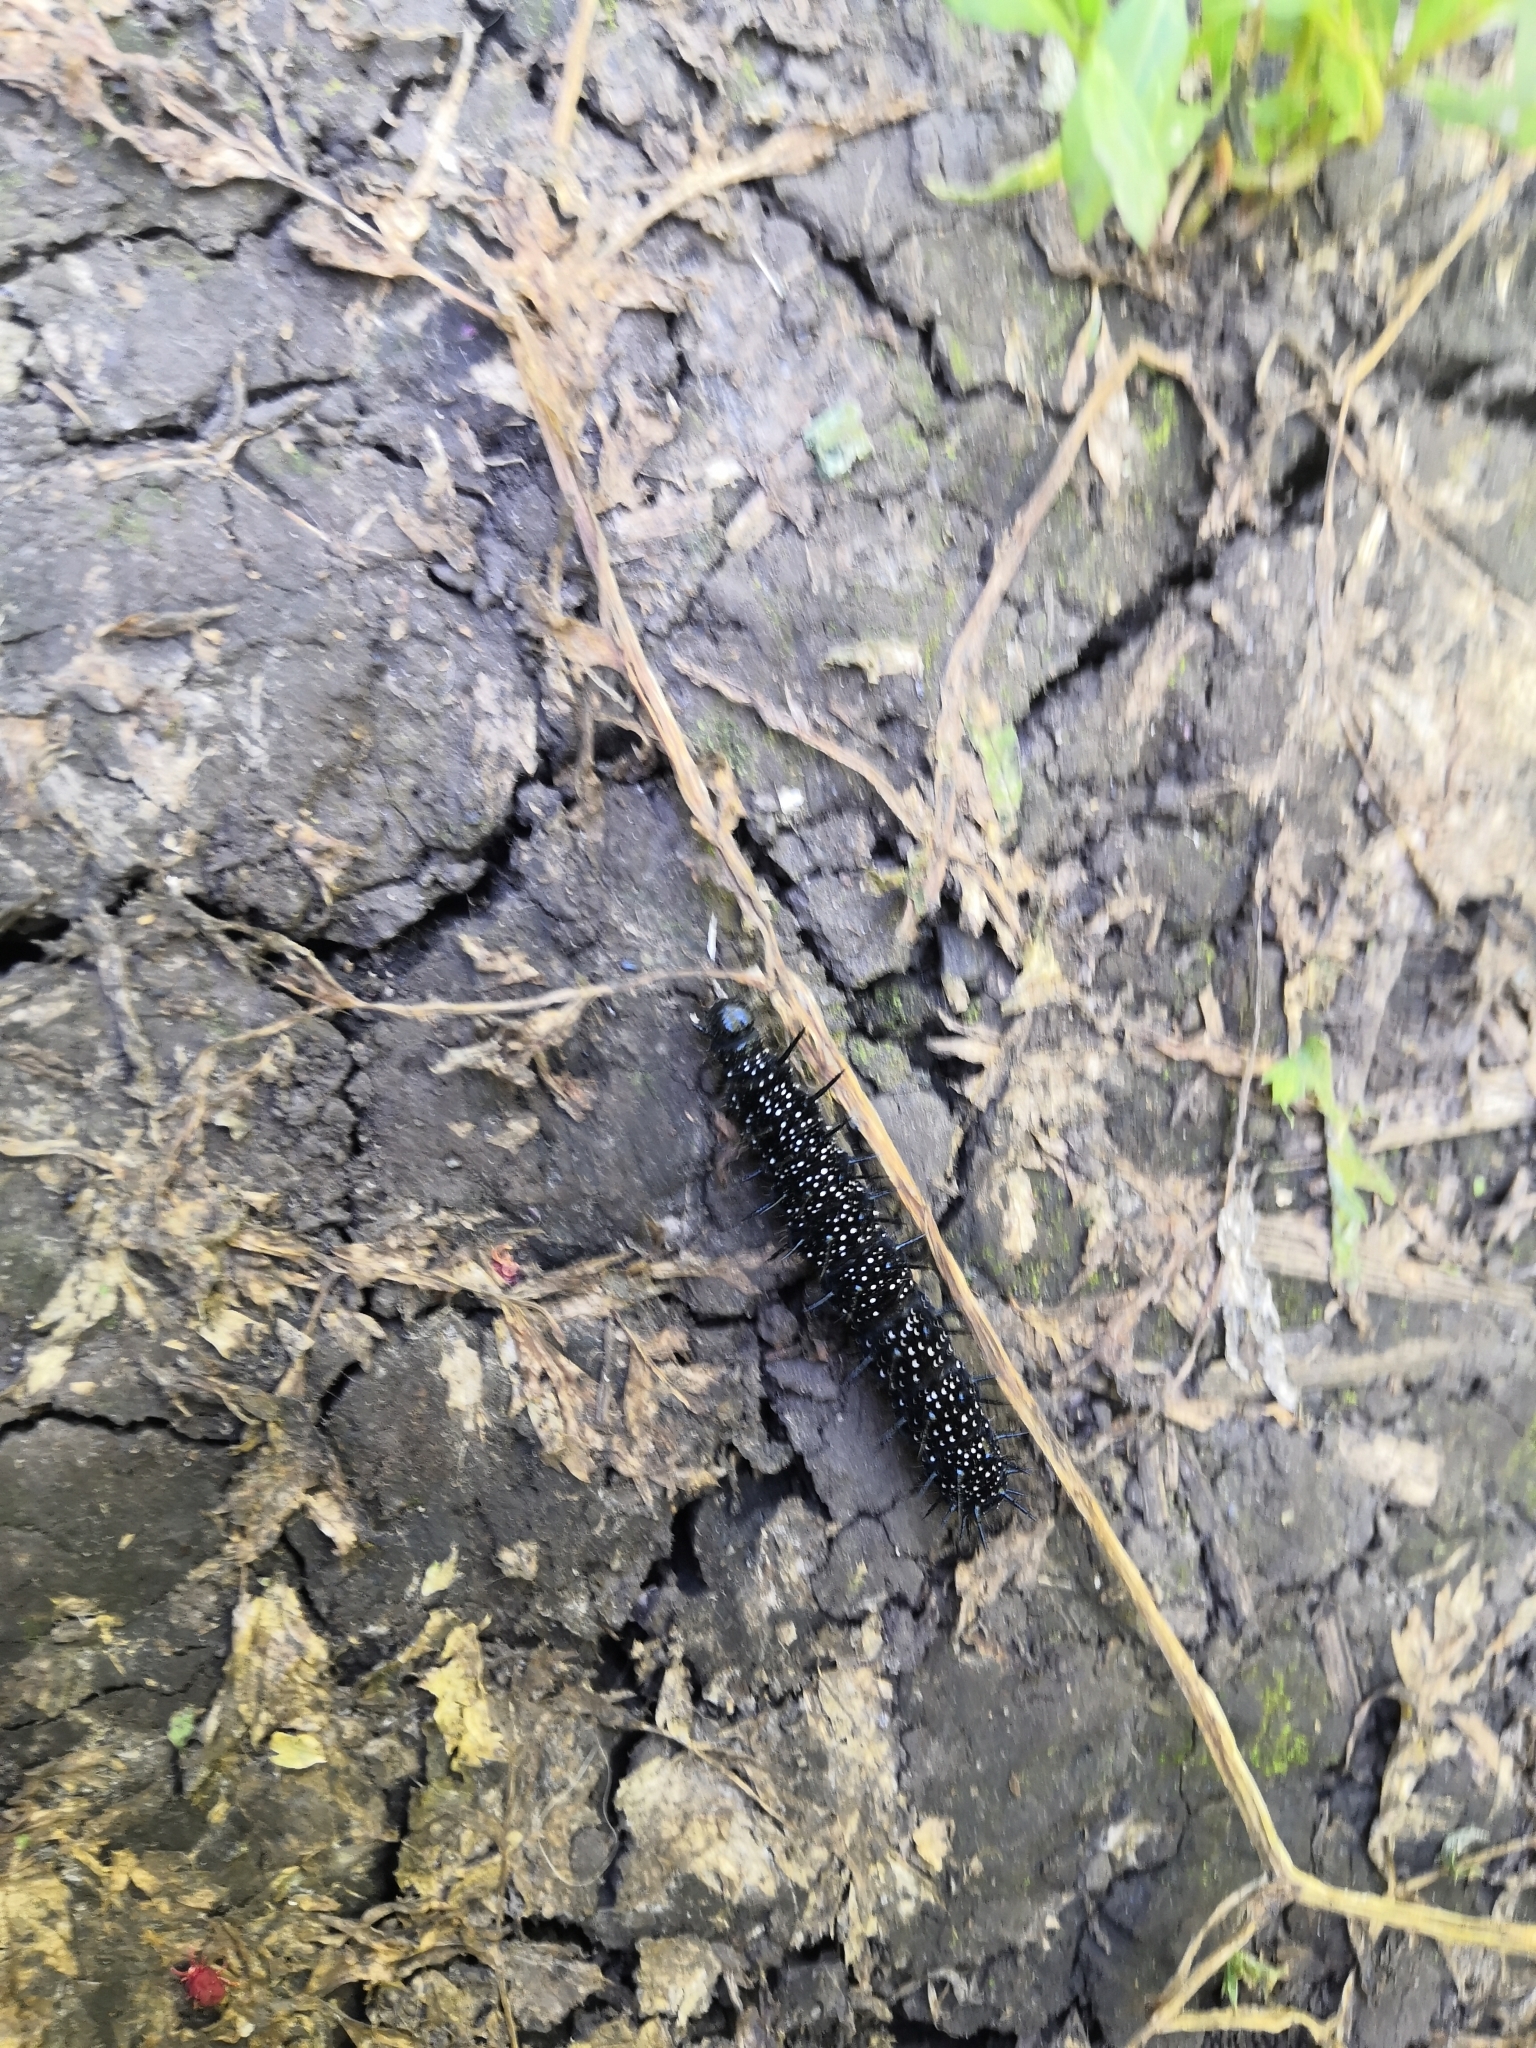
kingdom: Animalia
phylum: Arthropoda
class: Insecta
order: Lepidoptera
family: Nymphalidae
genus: Aglais
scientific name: Aglais io
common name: Peacock
